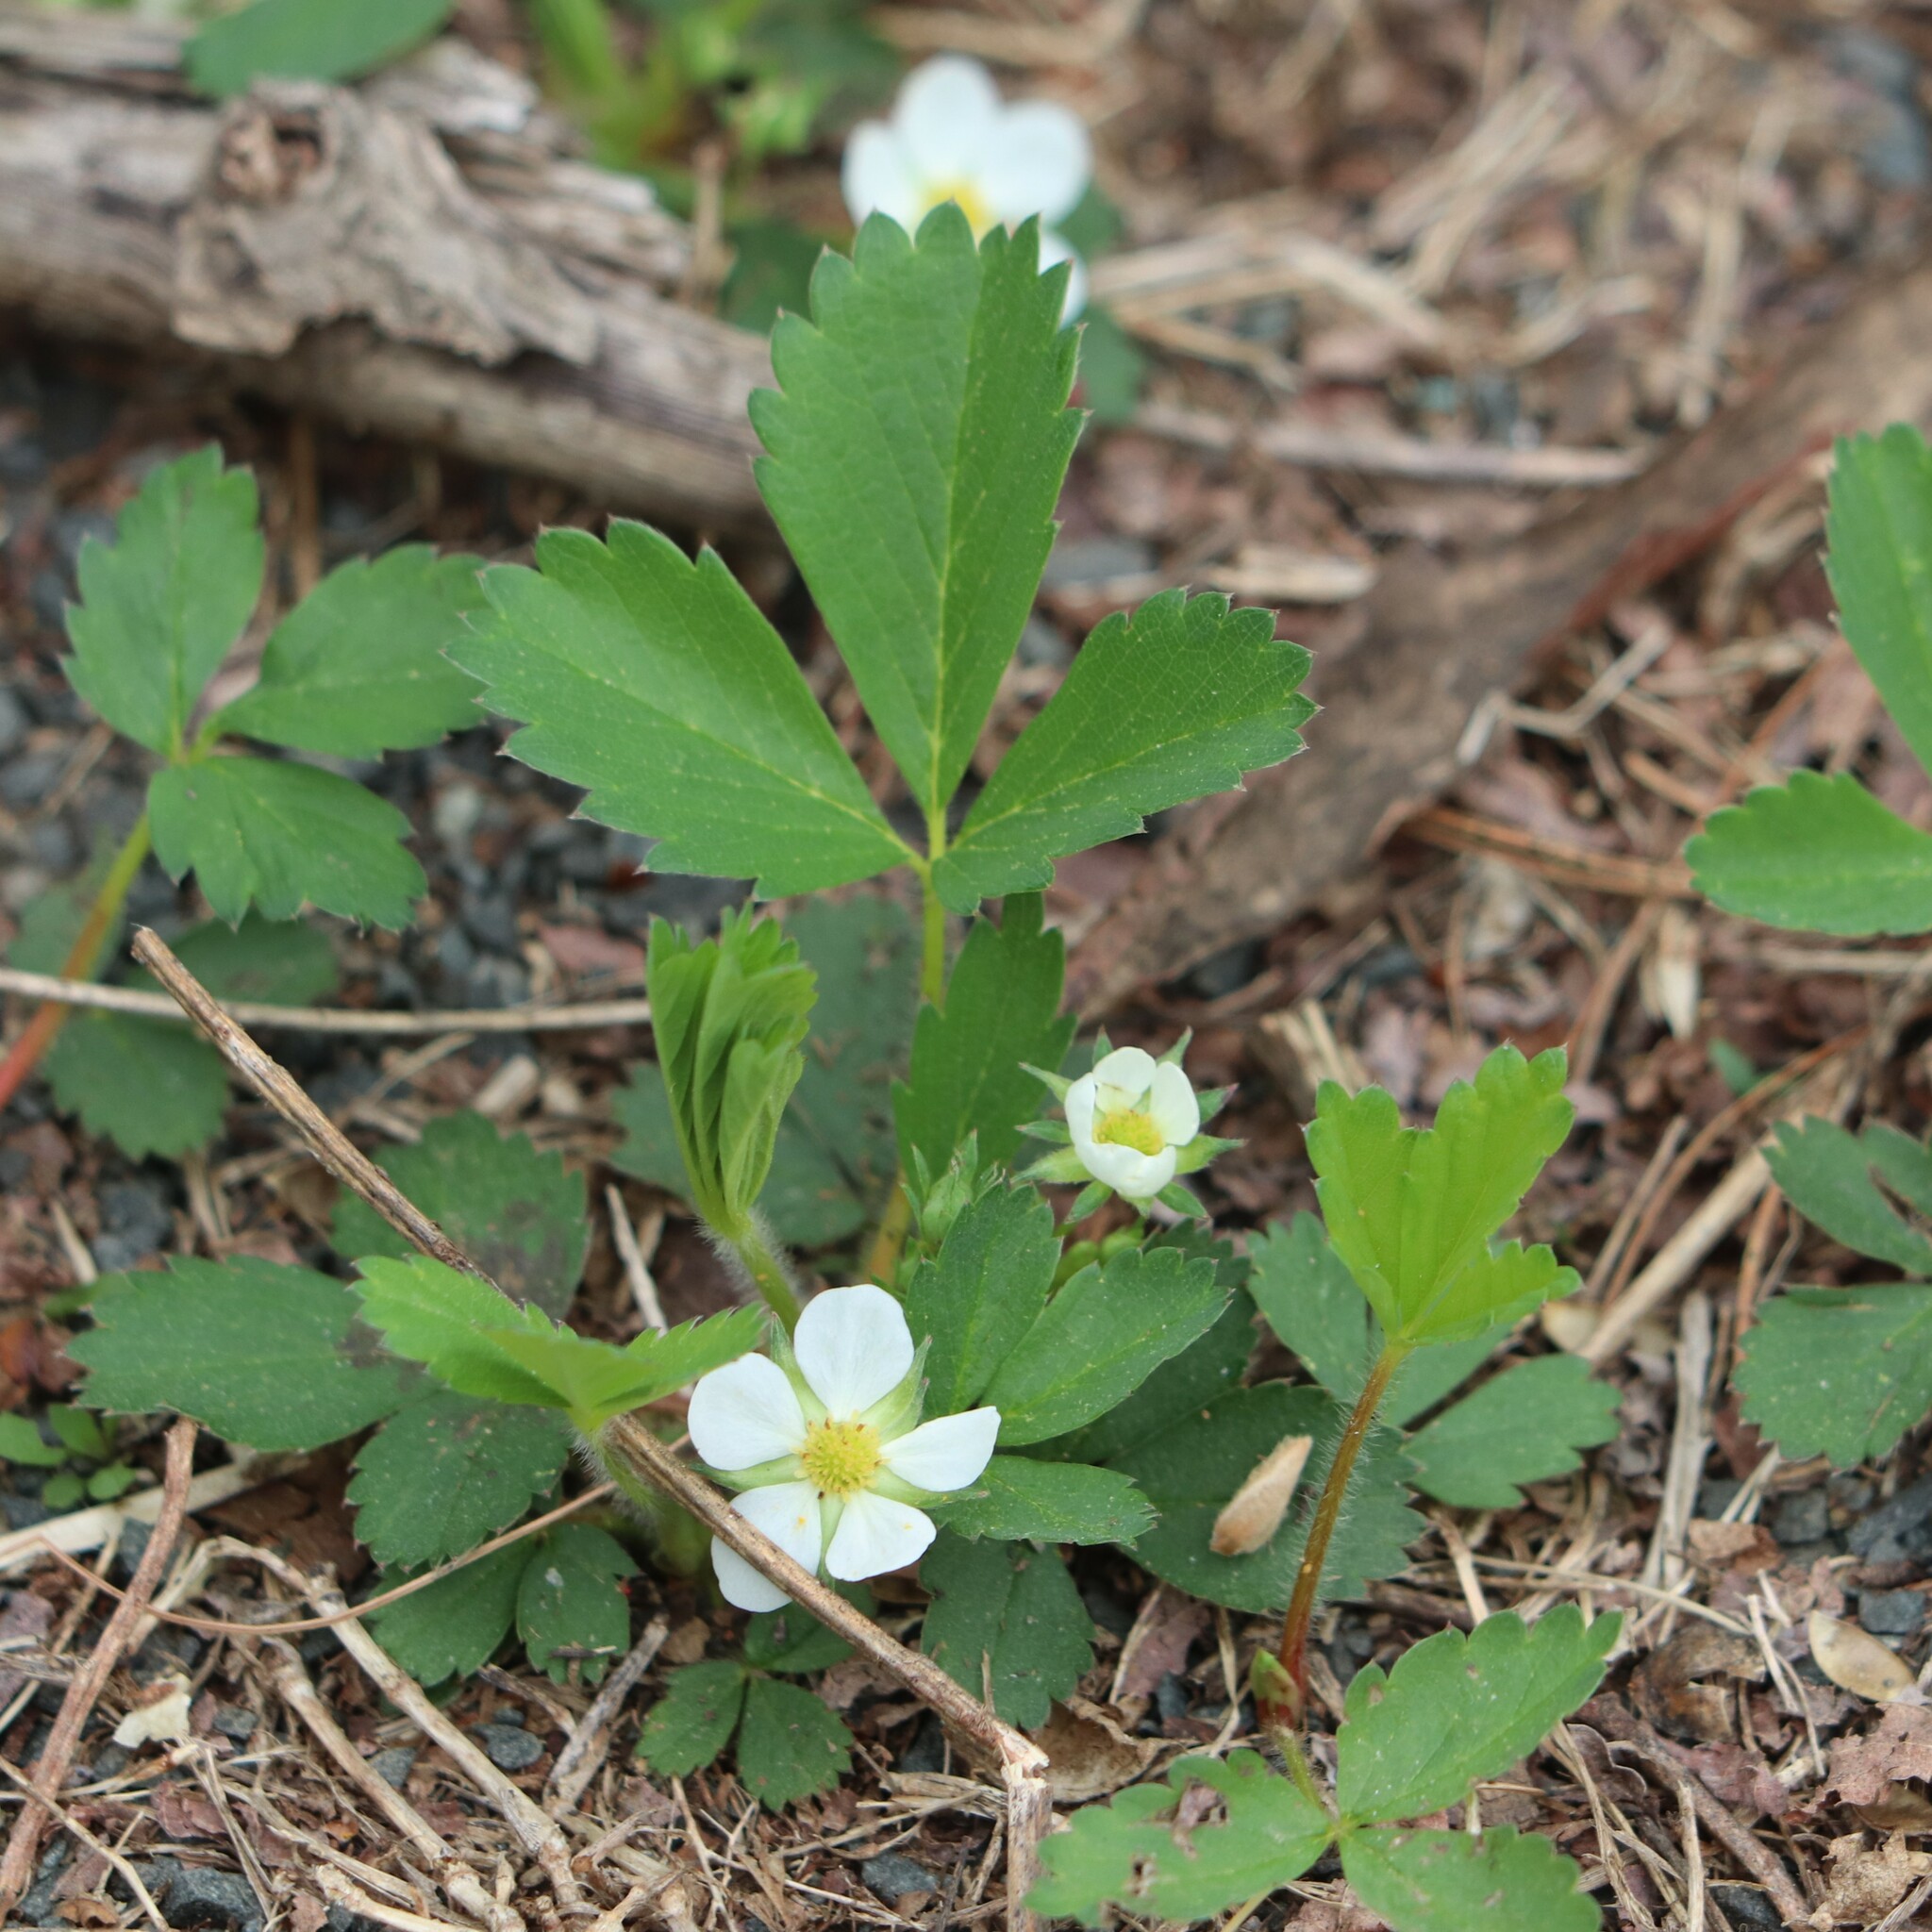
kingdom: Plantae
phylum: Tracheophyta
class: Magnoliopsida
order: Rosales
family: Rosaceae
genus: Fragaria
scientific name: Fragaria virginiana
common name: Thickleaved wild strawberry
